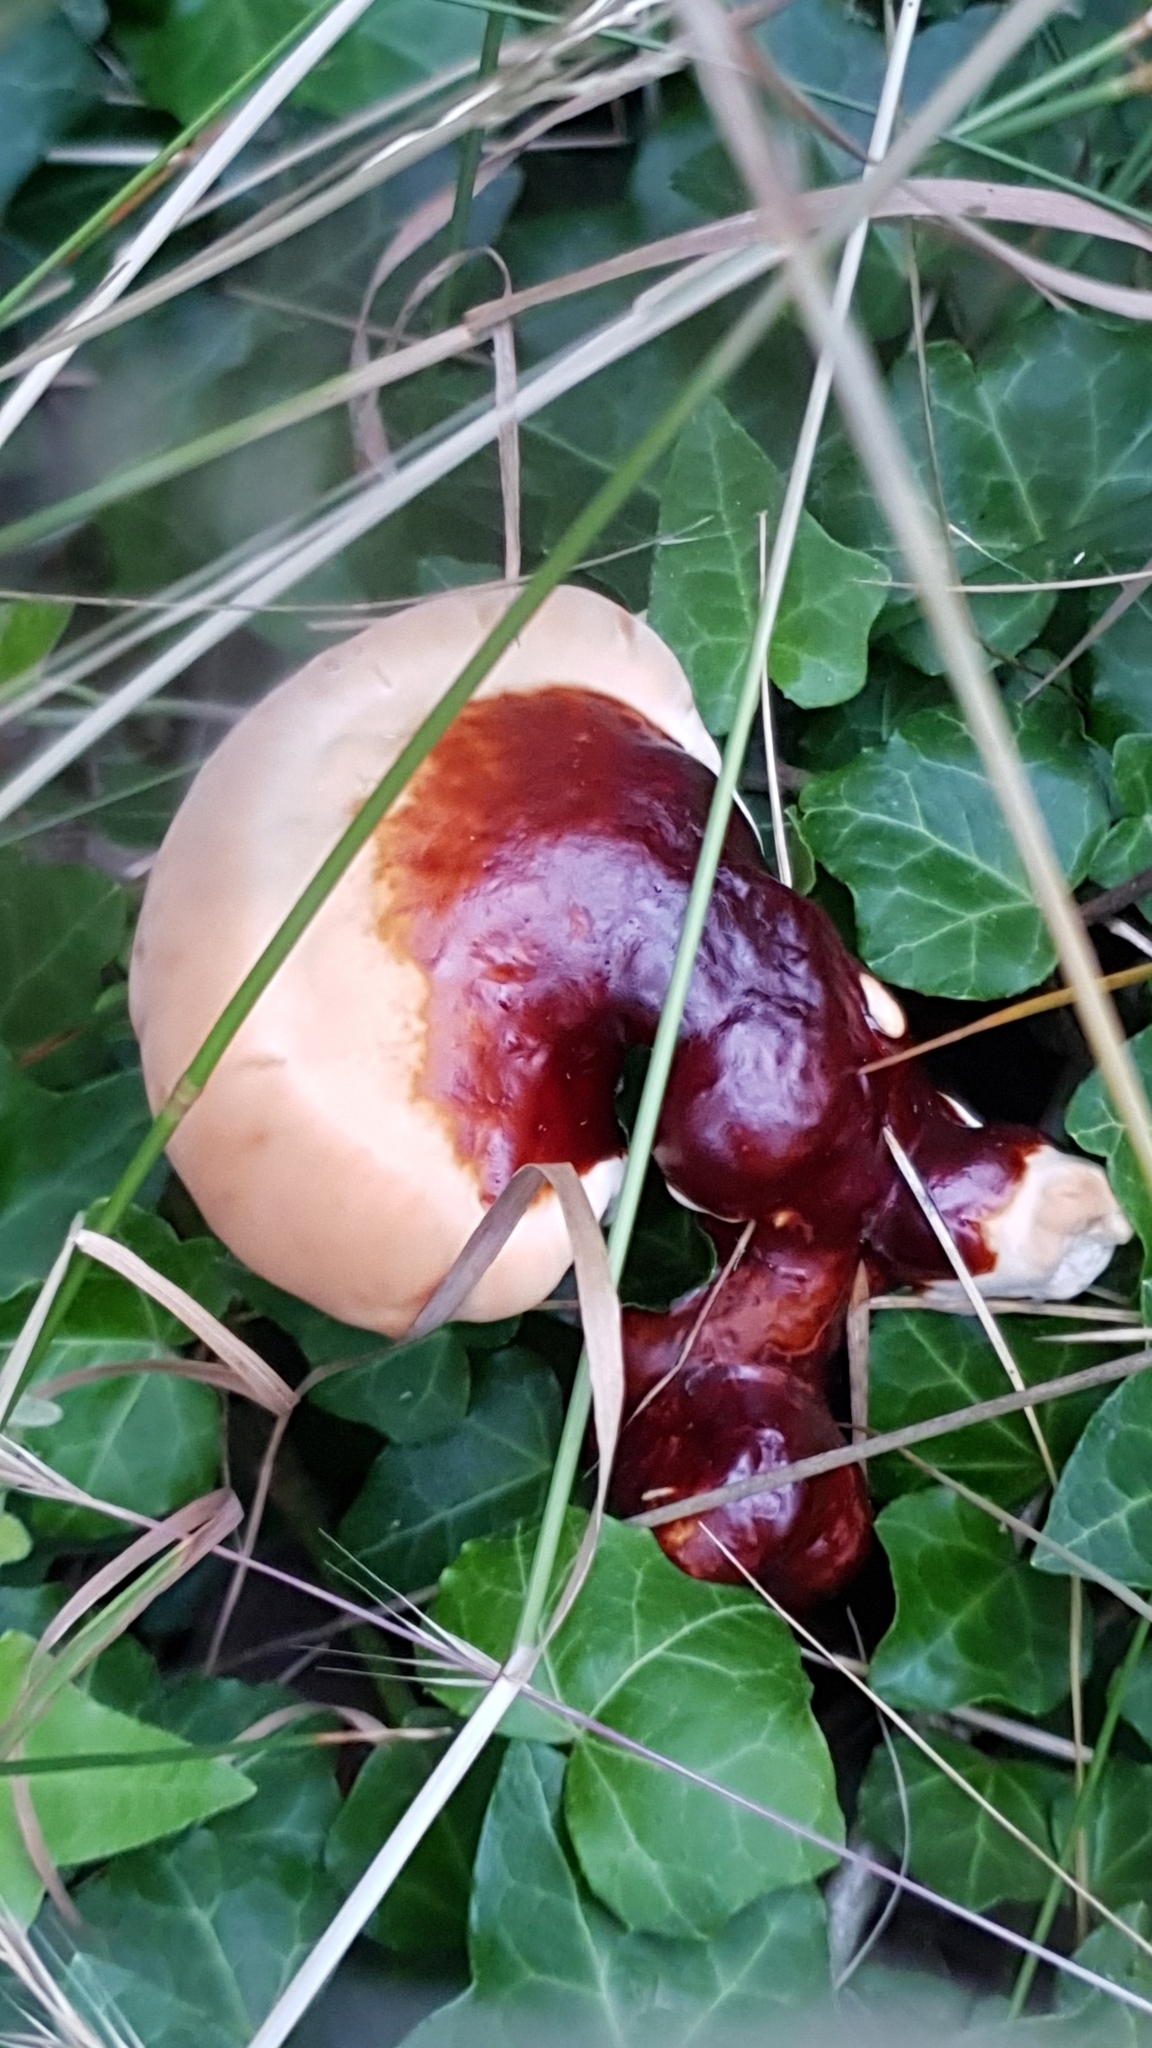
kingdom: Fungi
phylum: Basidiomycota
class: Agaricomycetes
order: Polyporales
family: Polyporaceae
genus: Ganoderma
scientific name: Ganoderma lucidum
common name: Lacquered bracket
